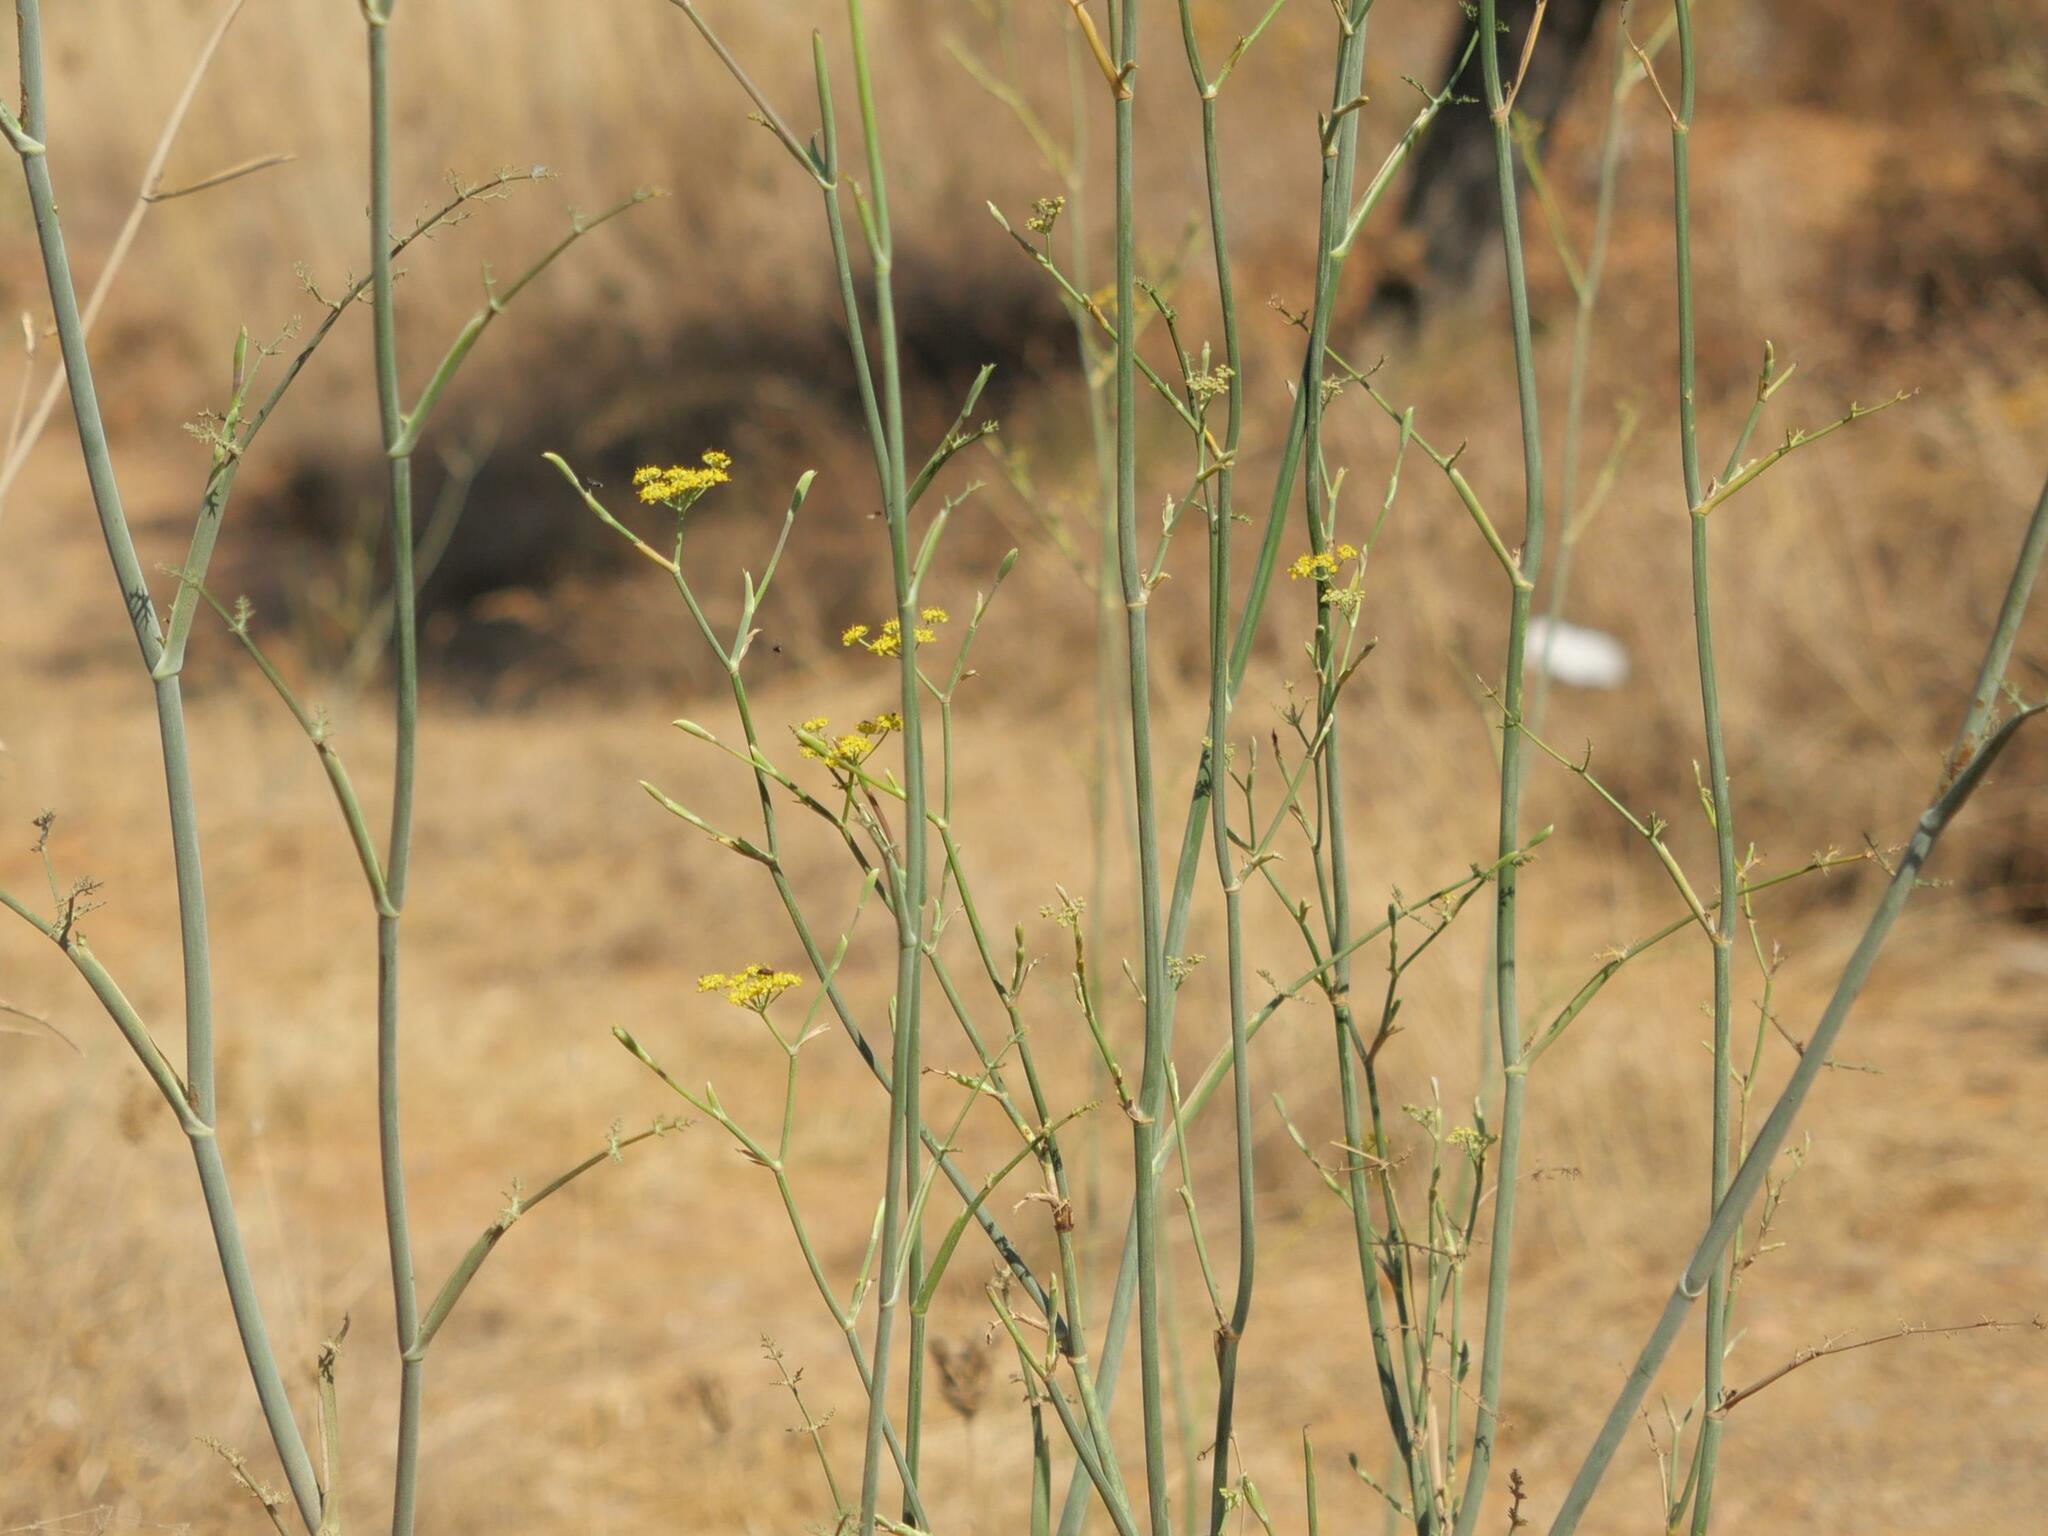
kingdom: Plantae
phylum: Tracheophyta
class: Magnoliopsida
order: Apiales
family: Apiaceae
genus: Foeniculum
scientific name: Foeniculum vulgare
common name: Fennel
